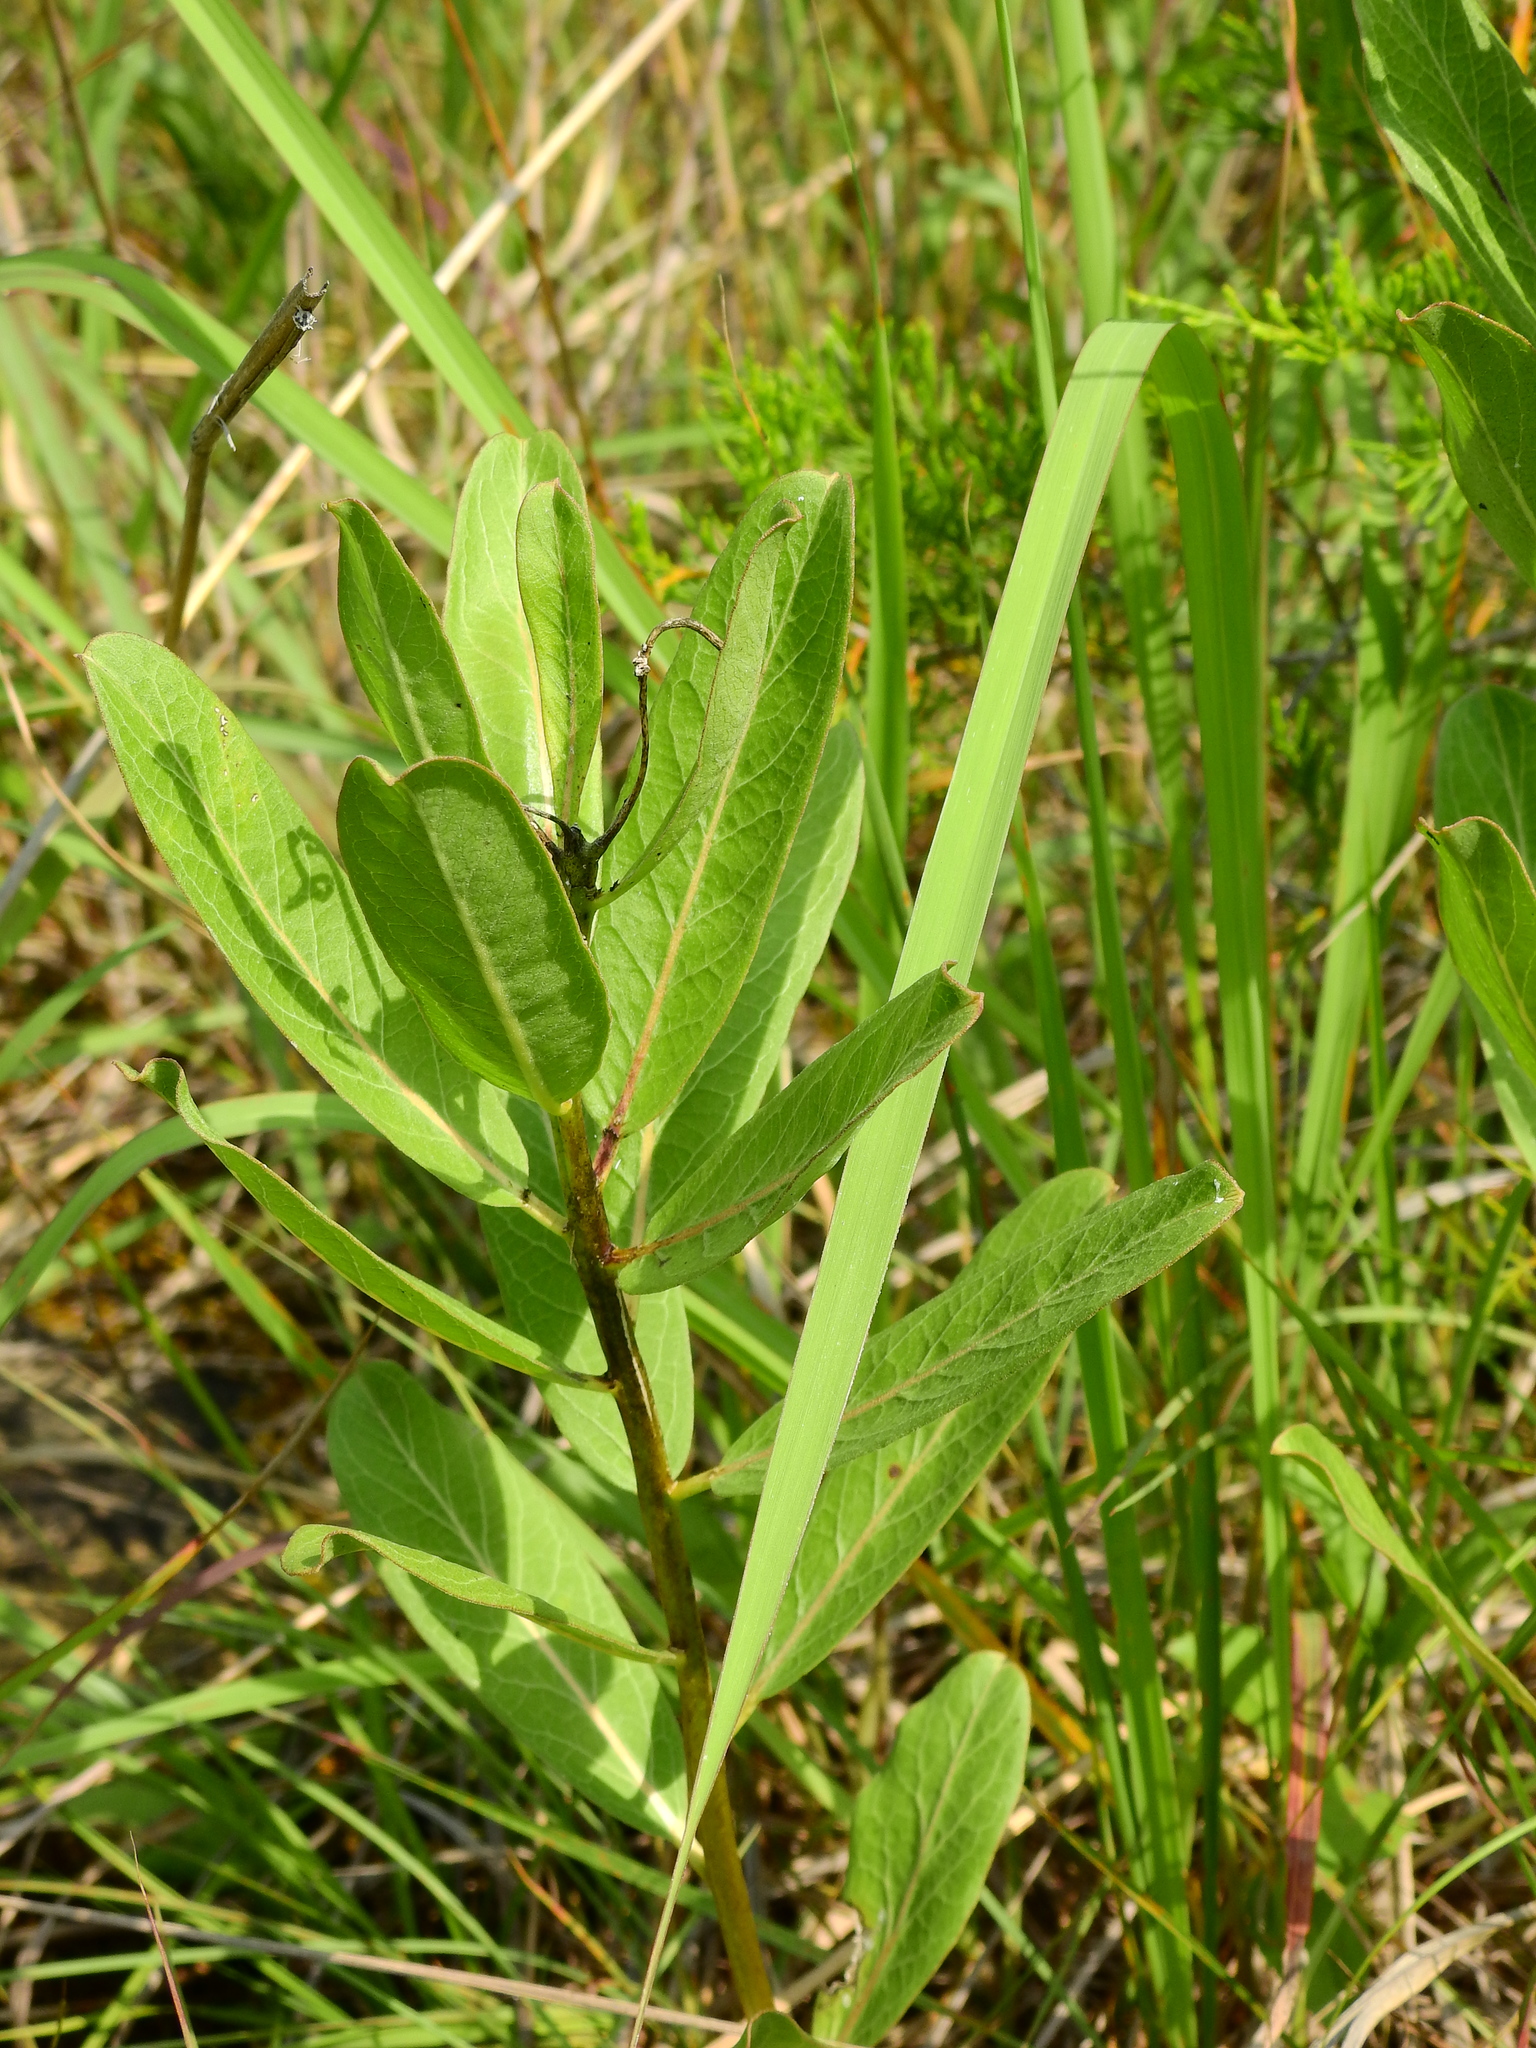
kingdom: Plantae
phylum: Tracheophyta
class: Magnoliopsida
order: Gentianales
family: Apocynaceae
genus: Asclepias
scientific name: Asclepias viridis
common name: Antelope-horns
